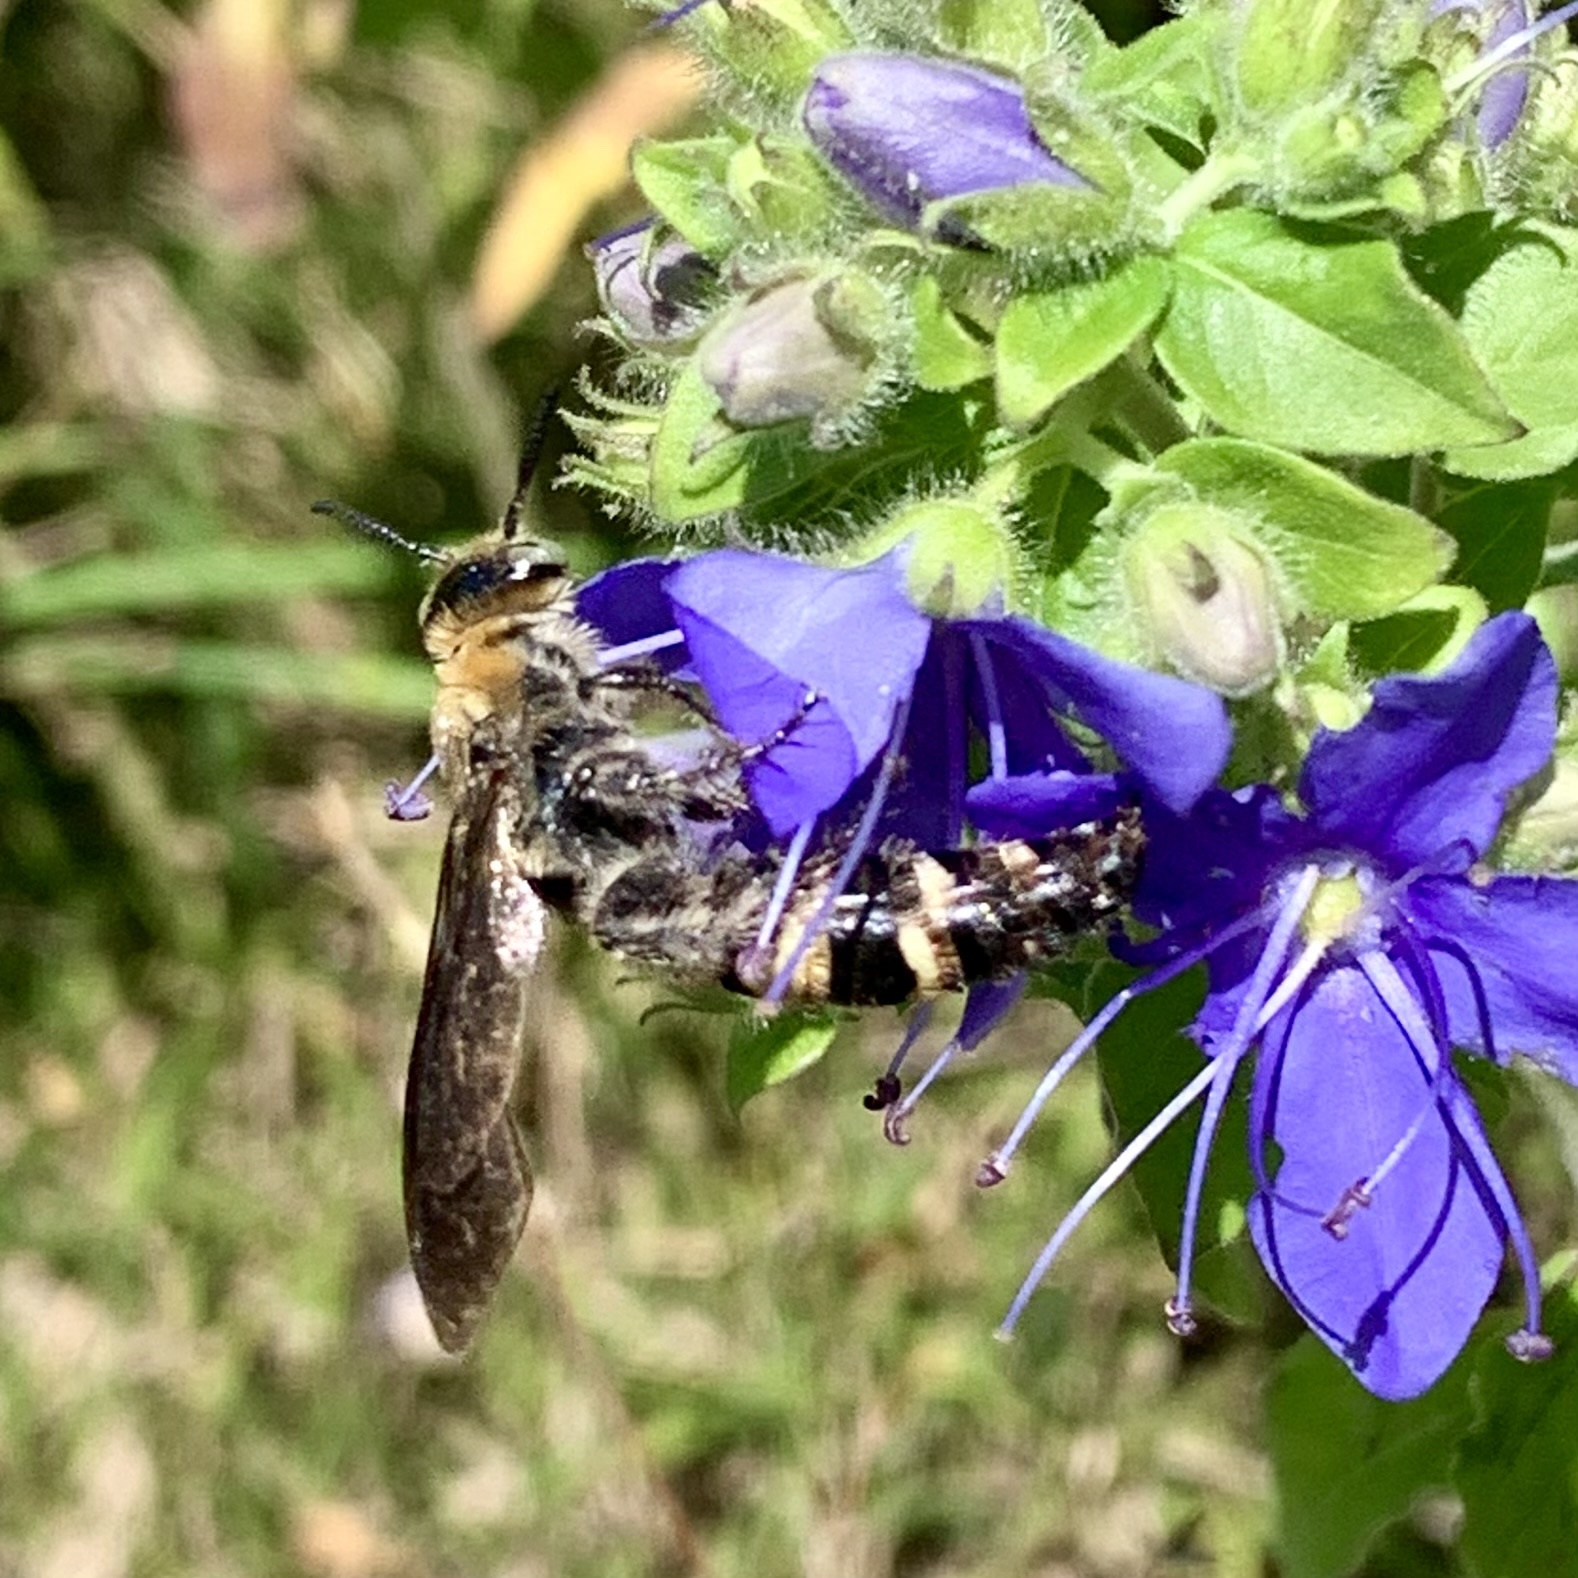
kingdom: Animalia
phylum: Arthropoda
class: Insecta
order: Hymenoptera
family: Scoliidae
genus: Dielis
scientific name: Dielis
